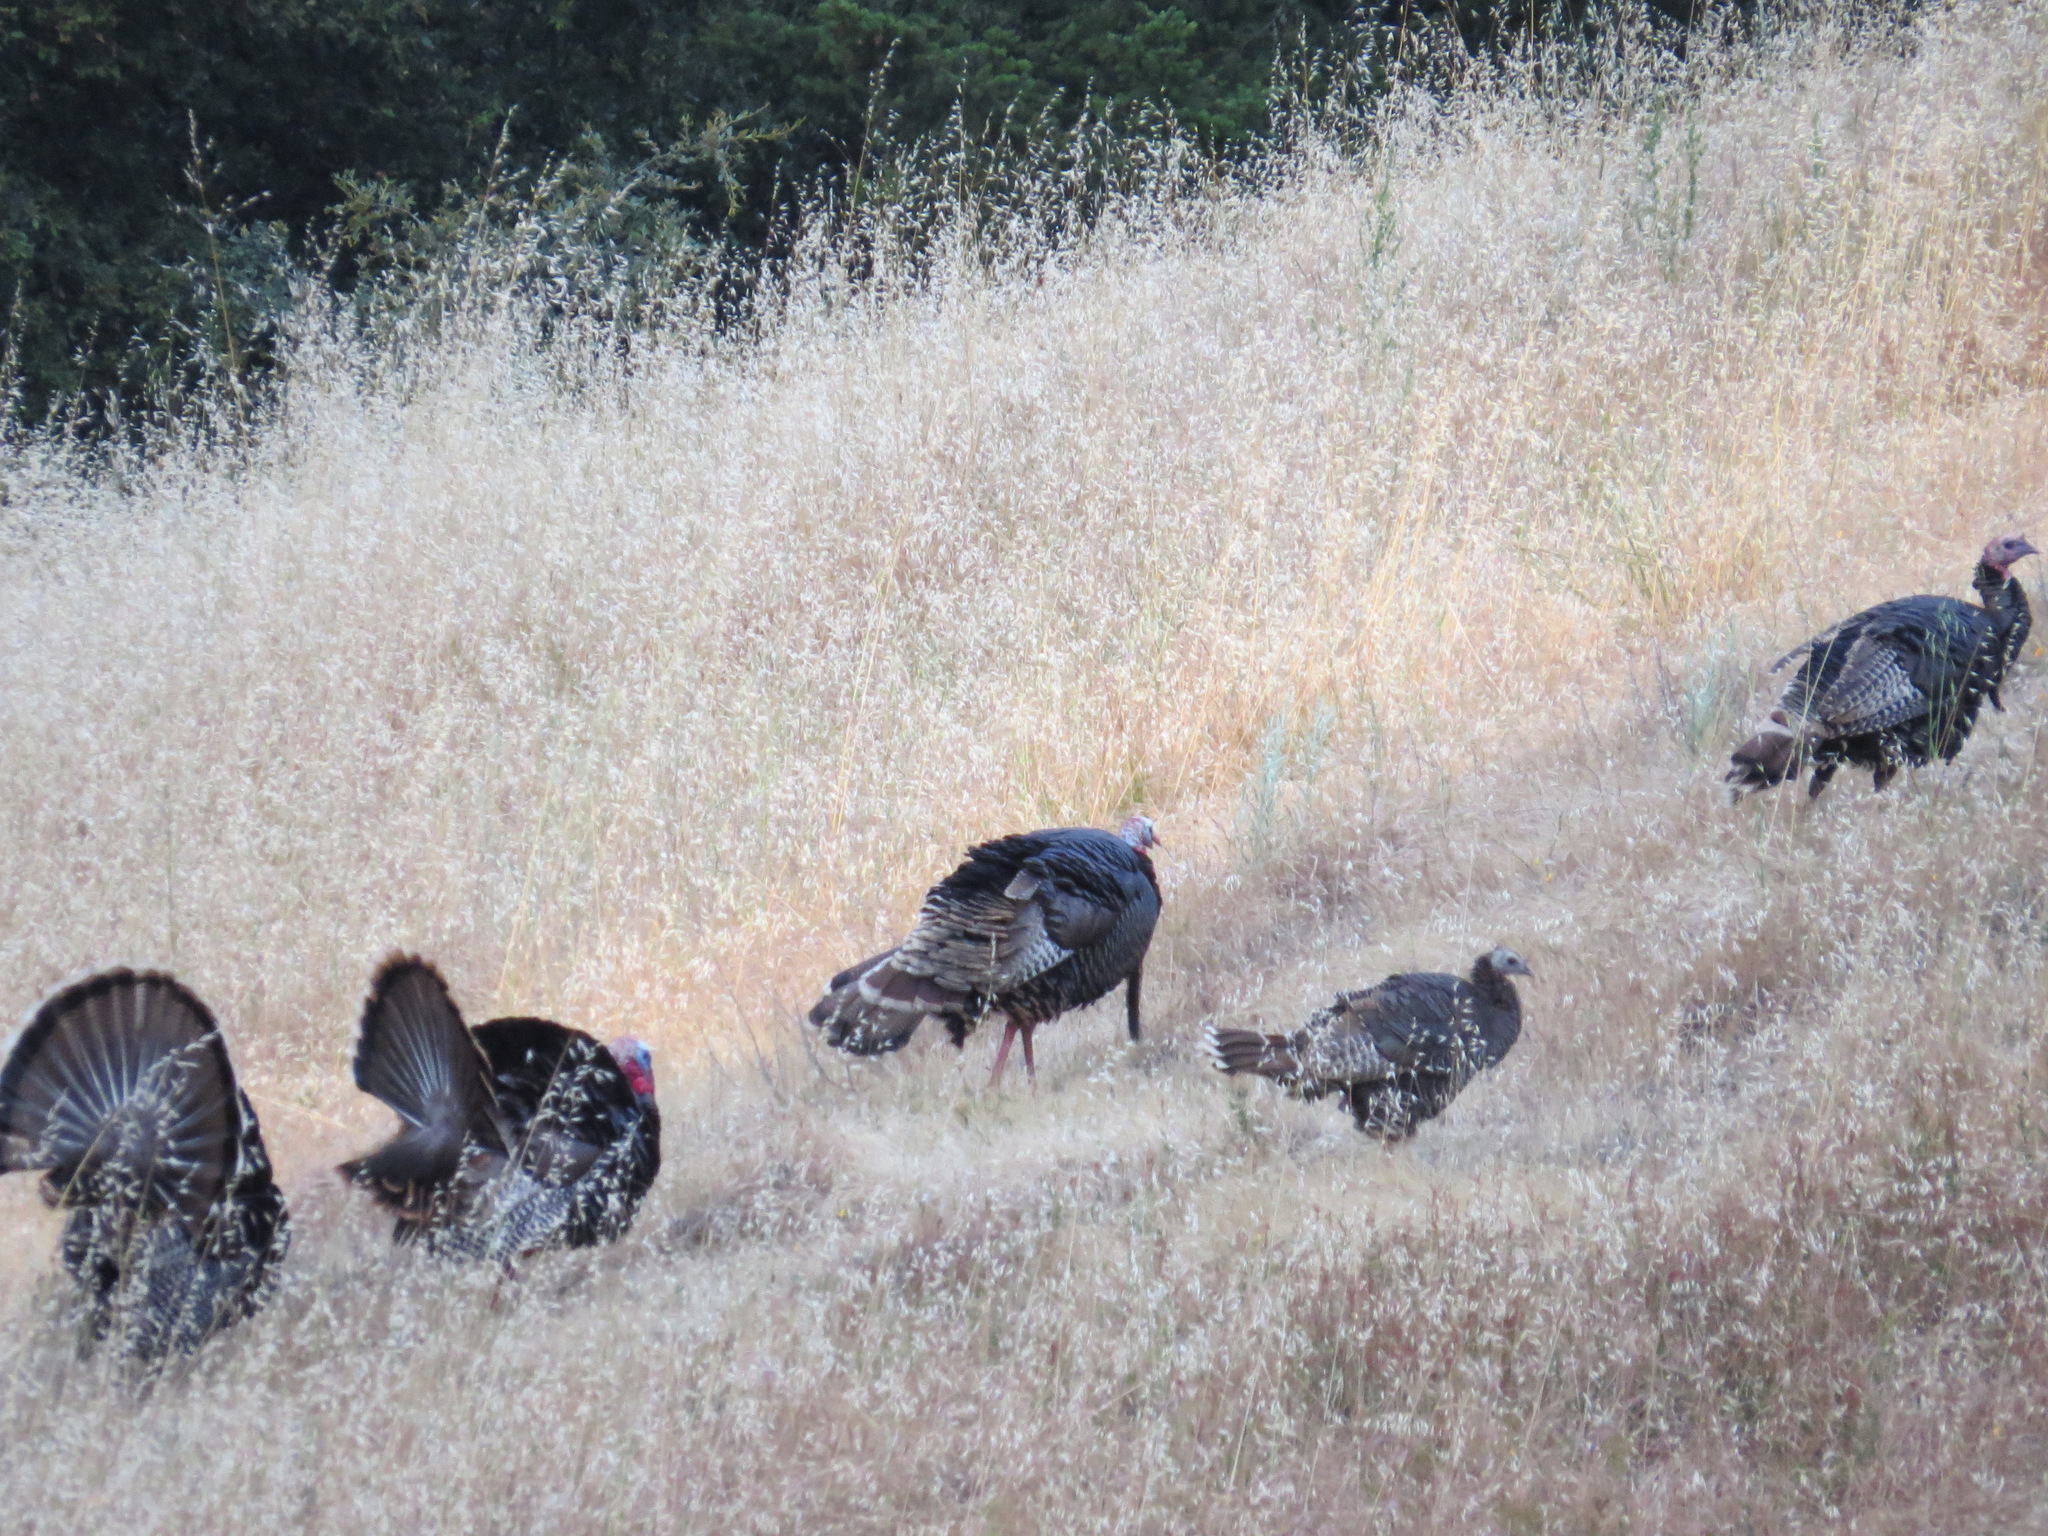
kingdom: Animalia
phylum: Chordata
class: Aves
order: Galliformes
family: Phasianidae
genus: Meleagris
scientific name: Meleagris gallopavo
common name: Wild turkey
